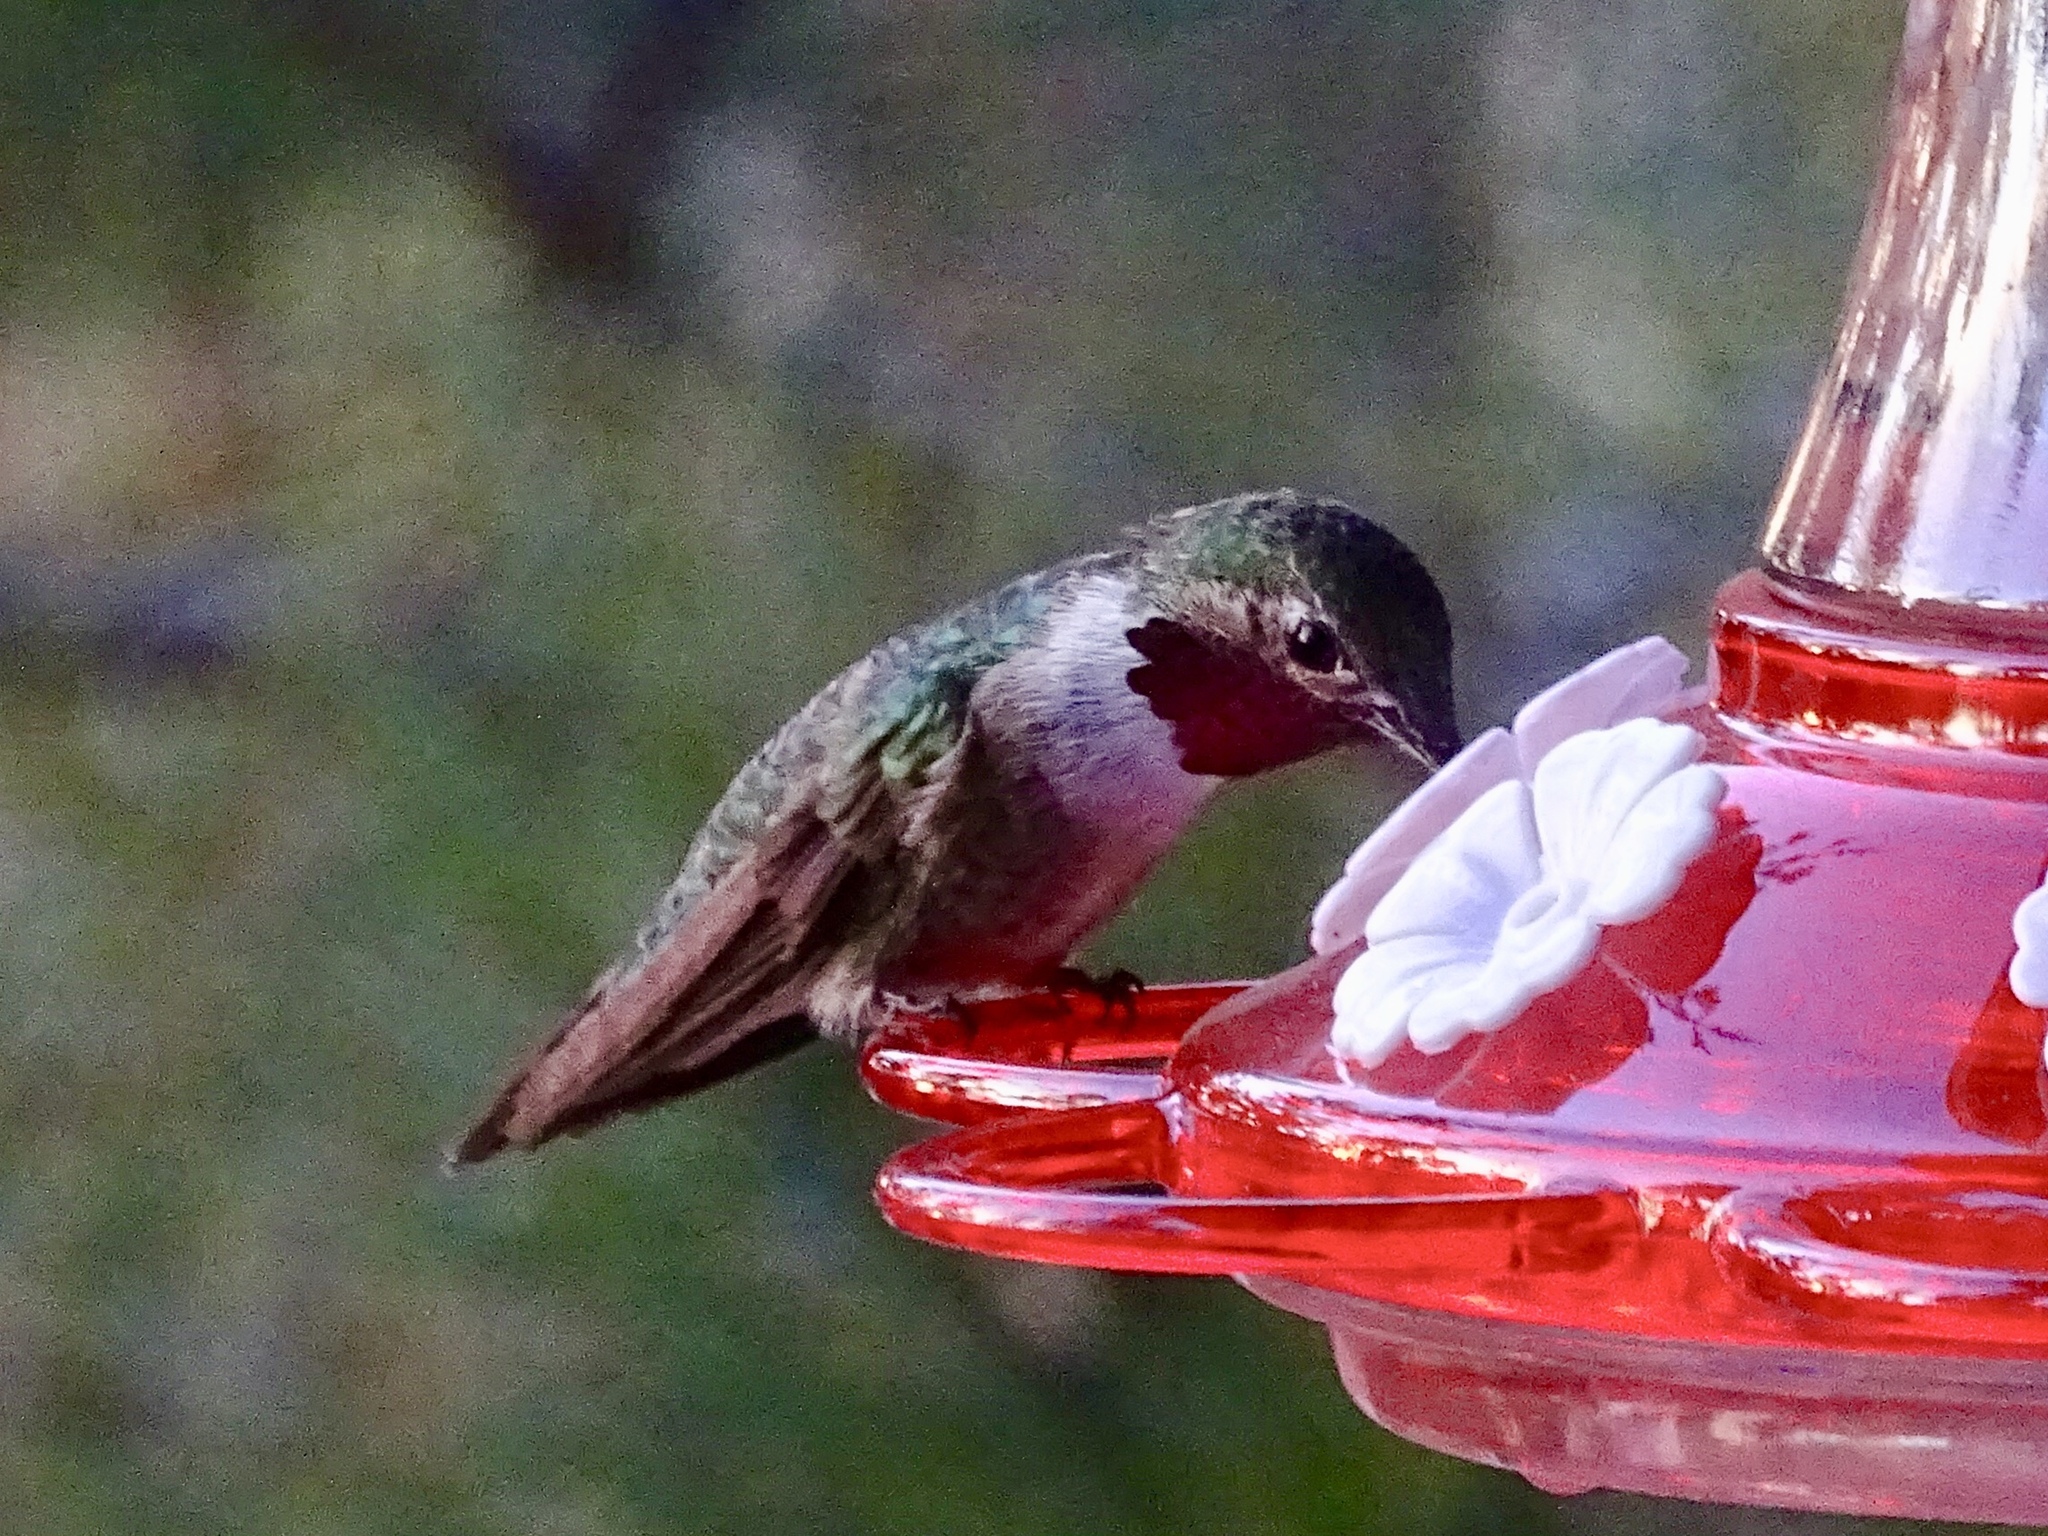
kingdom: Animalia
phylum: Chordata
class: Aves
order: Apodiformes
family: Trochilidae
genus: Selasphorus
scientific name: Selasphorus platycercus
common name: Broad-tailed hummingbird
